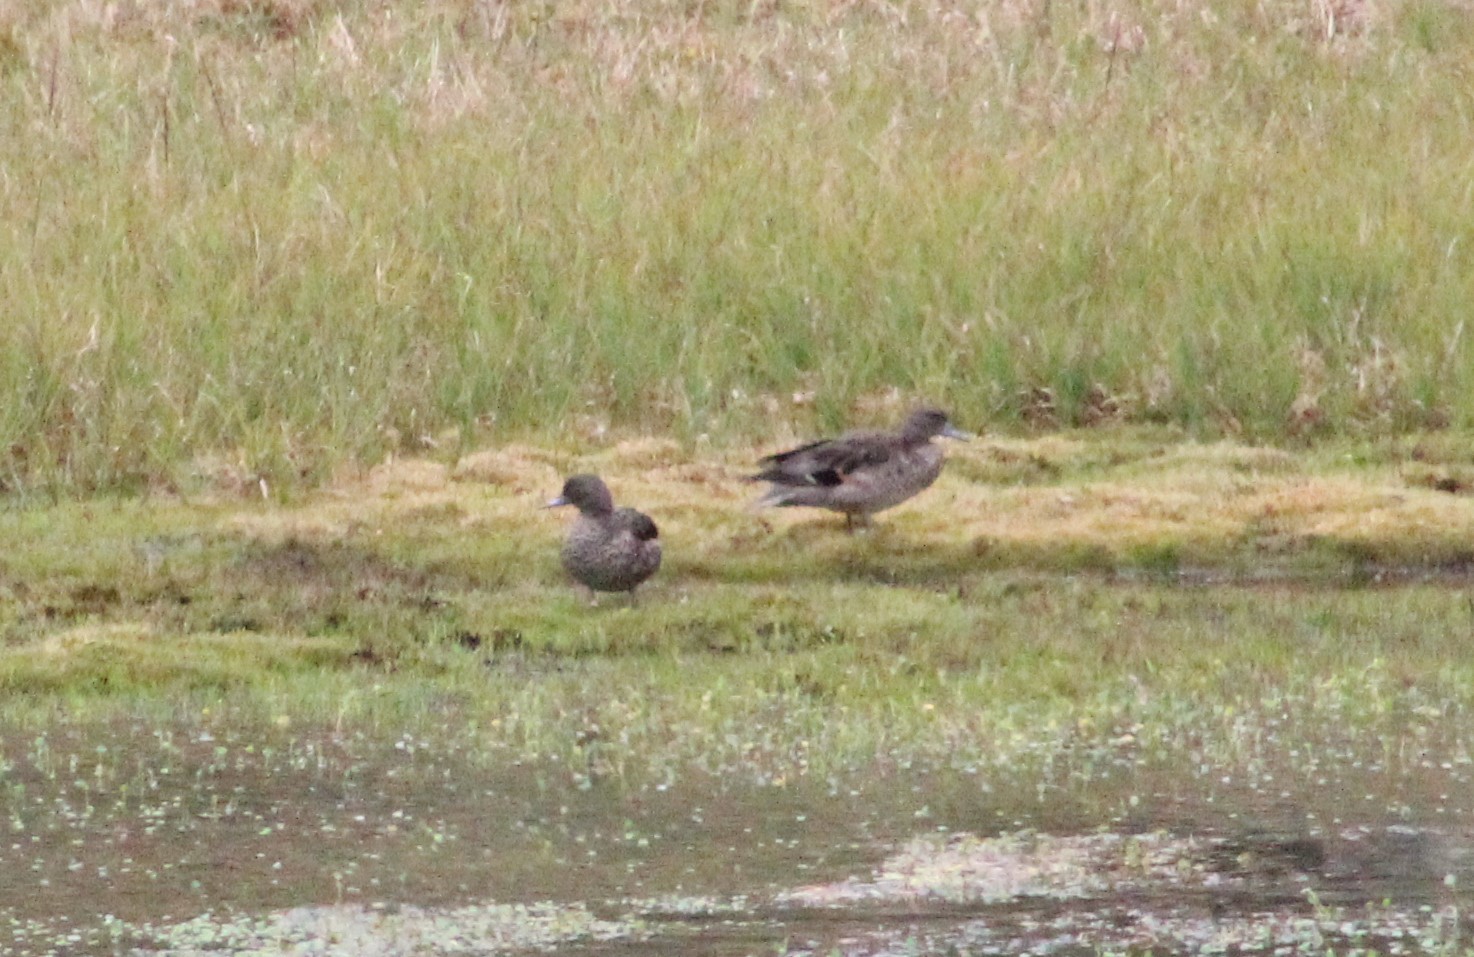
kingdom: Animalia
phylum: Chordata
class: Aves
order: Anseriformes
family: Anatidae
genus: Anas
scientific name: Anas andium
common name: Andean teal
